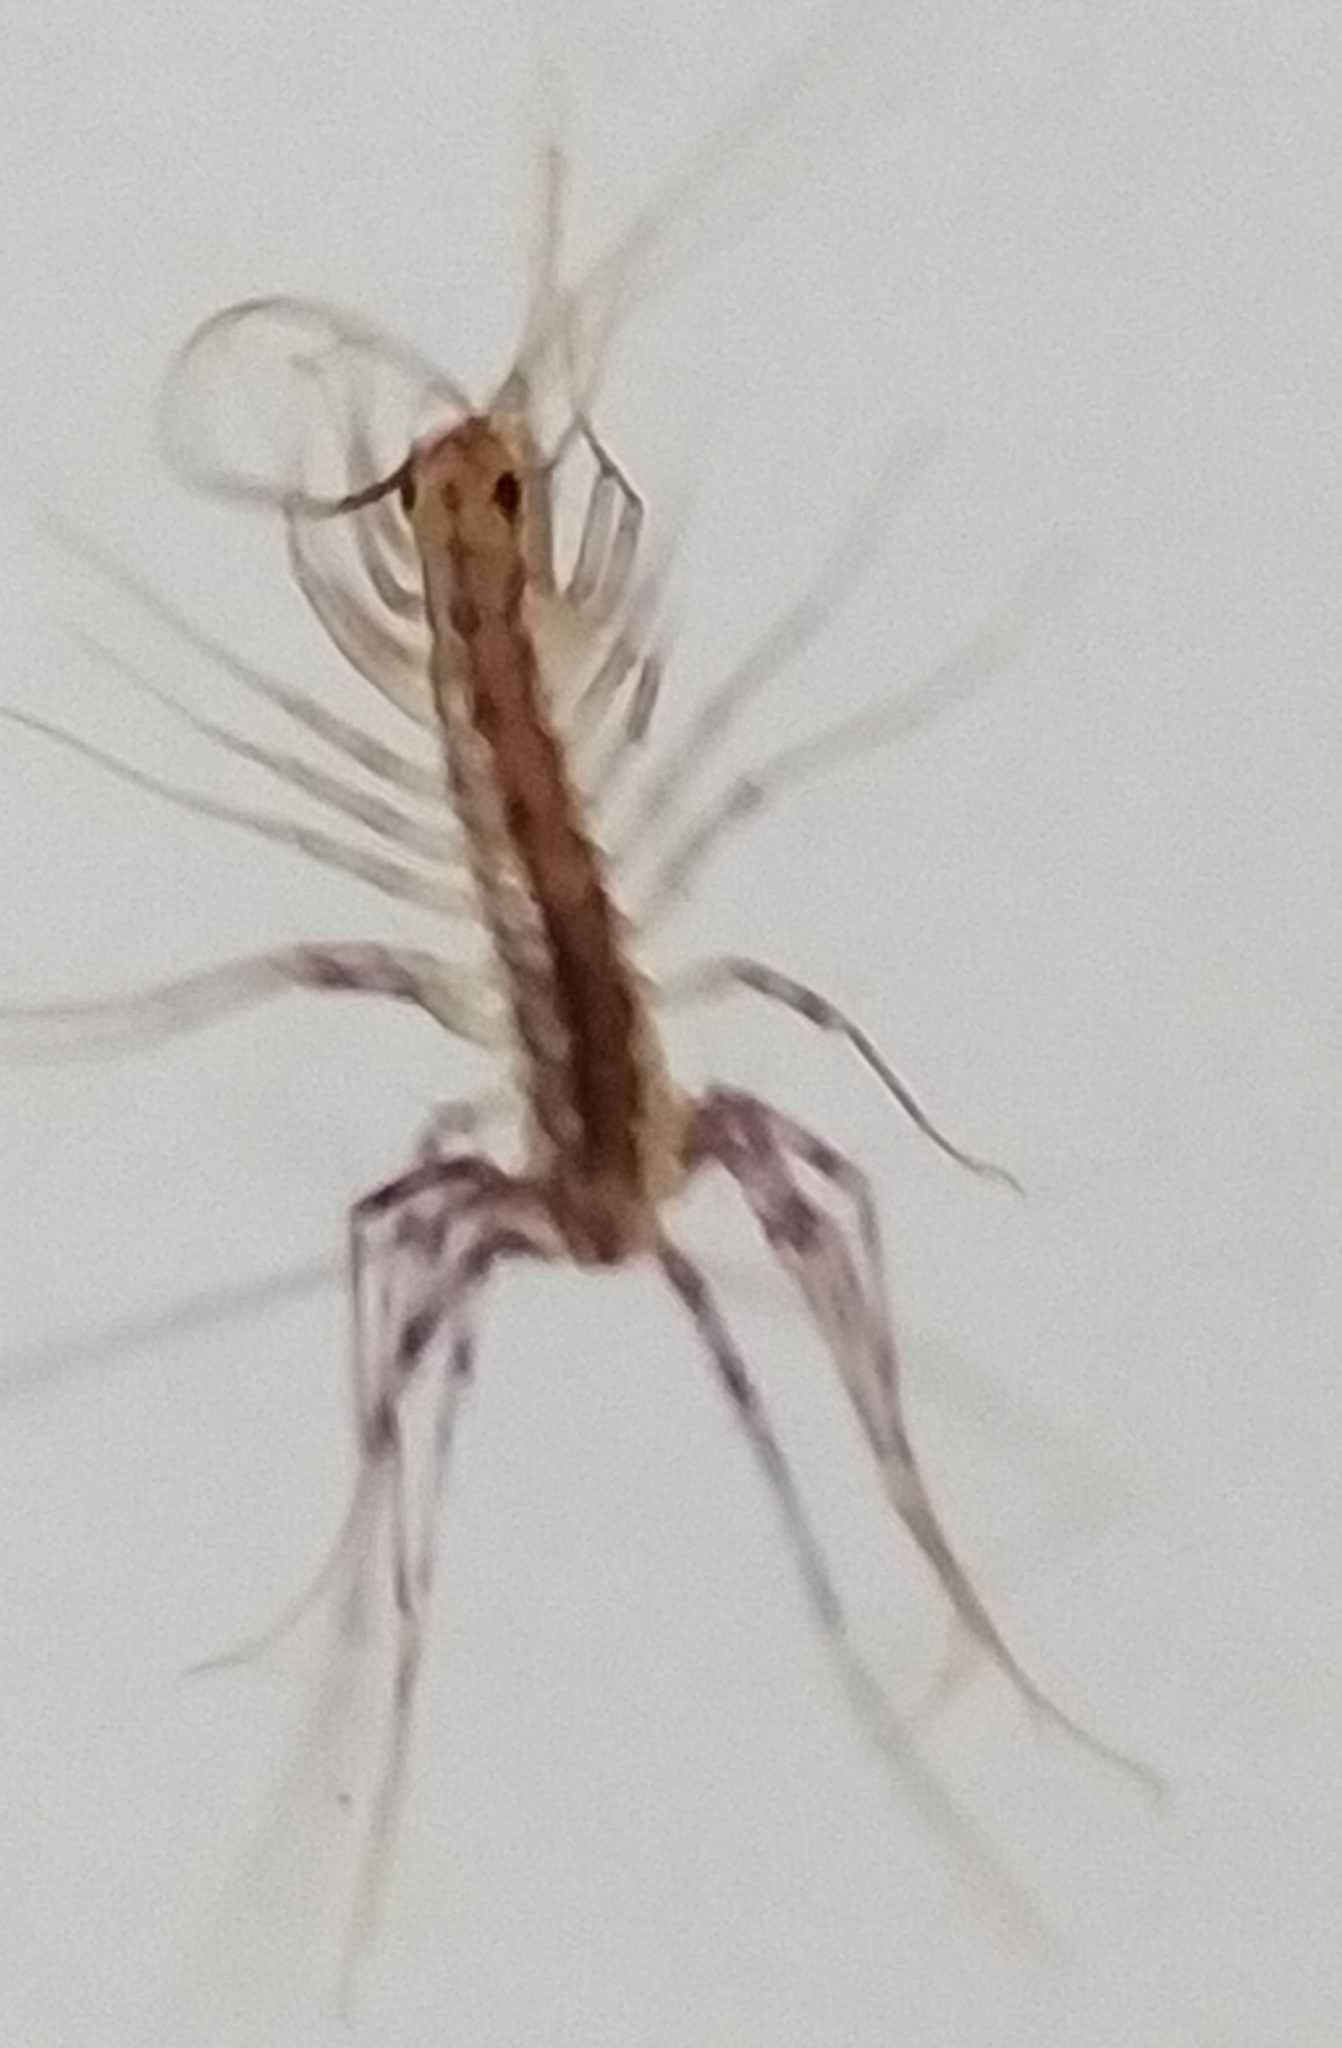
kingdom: Animalia
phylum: Arthropoda
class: Chilopoda
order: Scutigeromorpha
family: Scutigeridae
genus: Scutigera
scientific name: Scutigera coleoptrata
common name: House centipede
